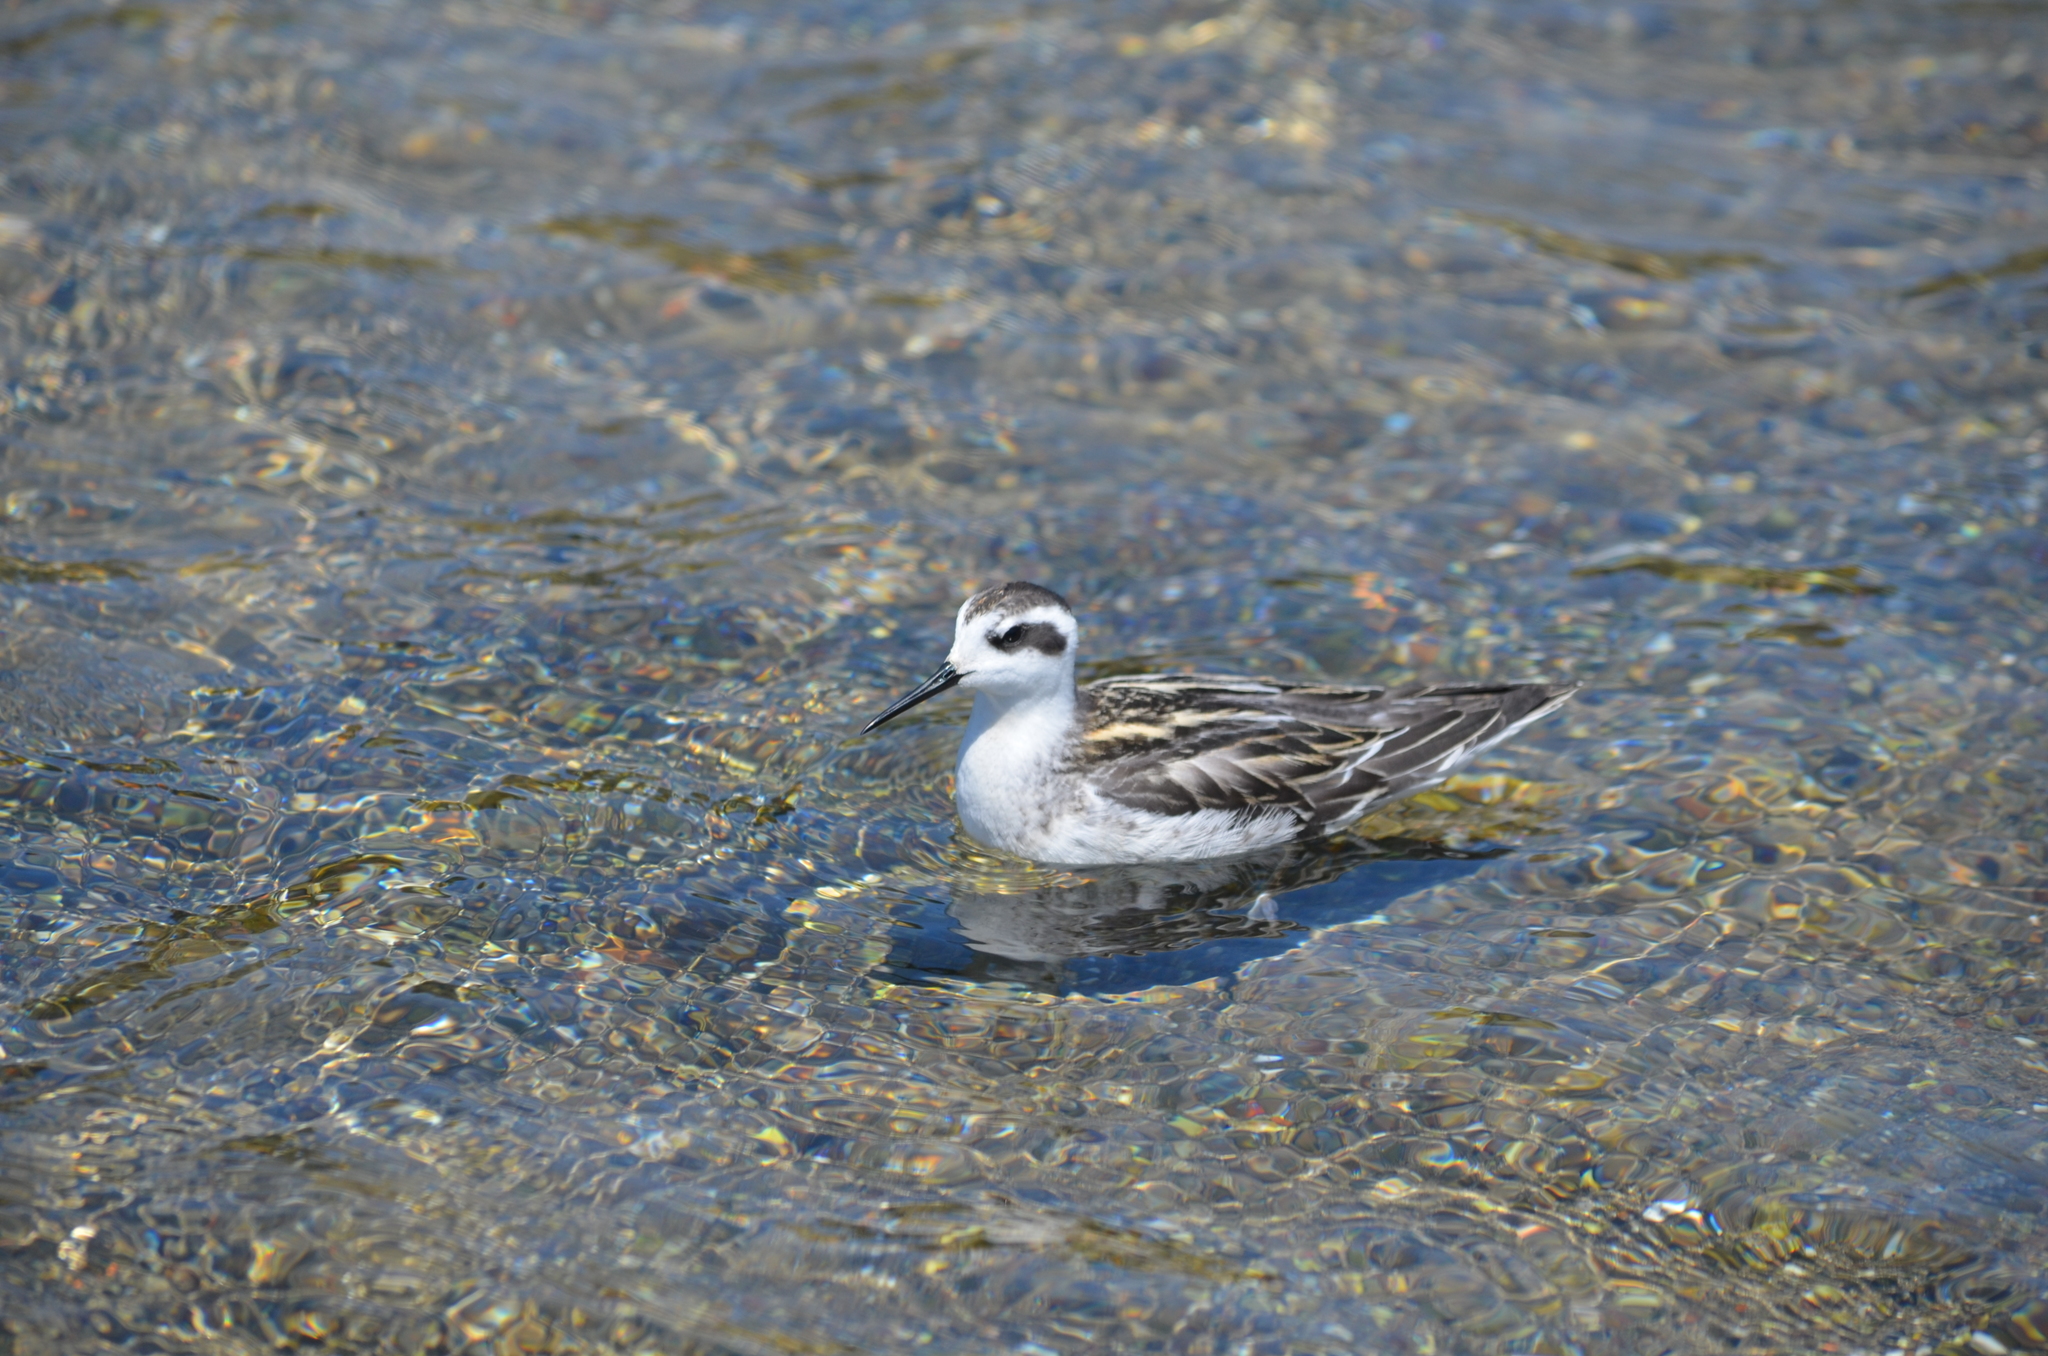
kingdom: Animalia
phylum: Chordata
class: Aves
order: Charadriiformes
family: Scolopacidae
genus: Phalaropus
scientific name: Phalaropus lobatus
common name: Red-necked phalarope
